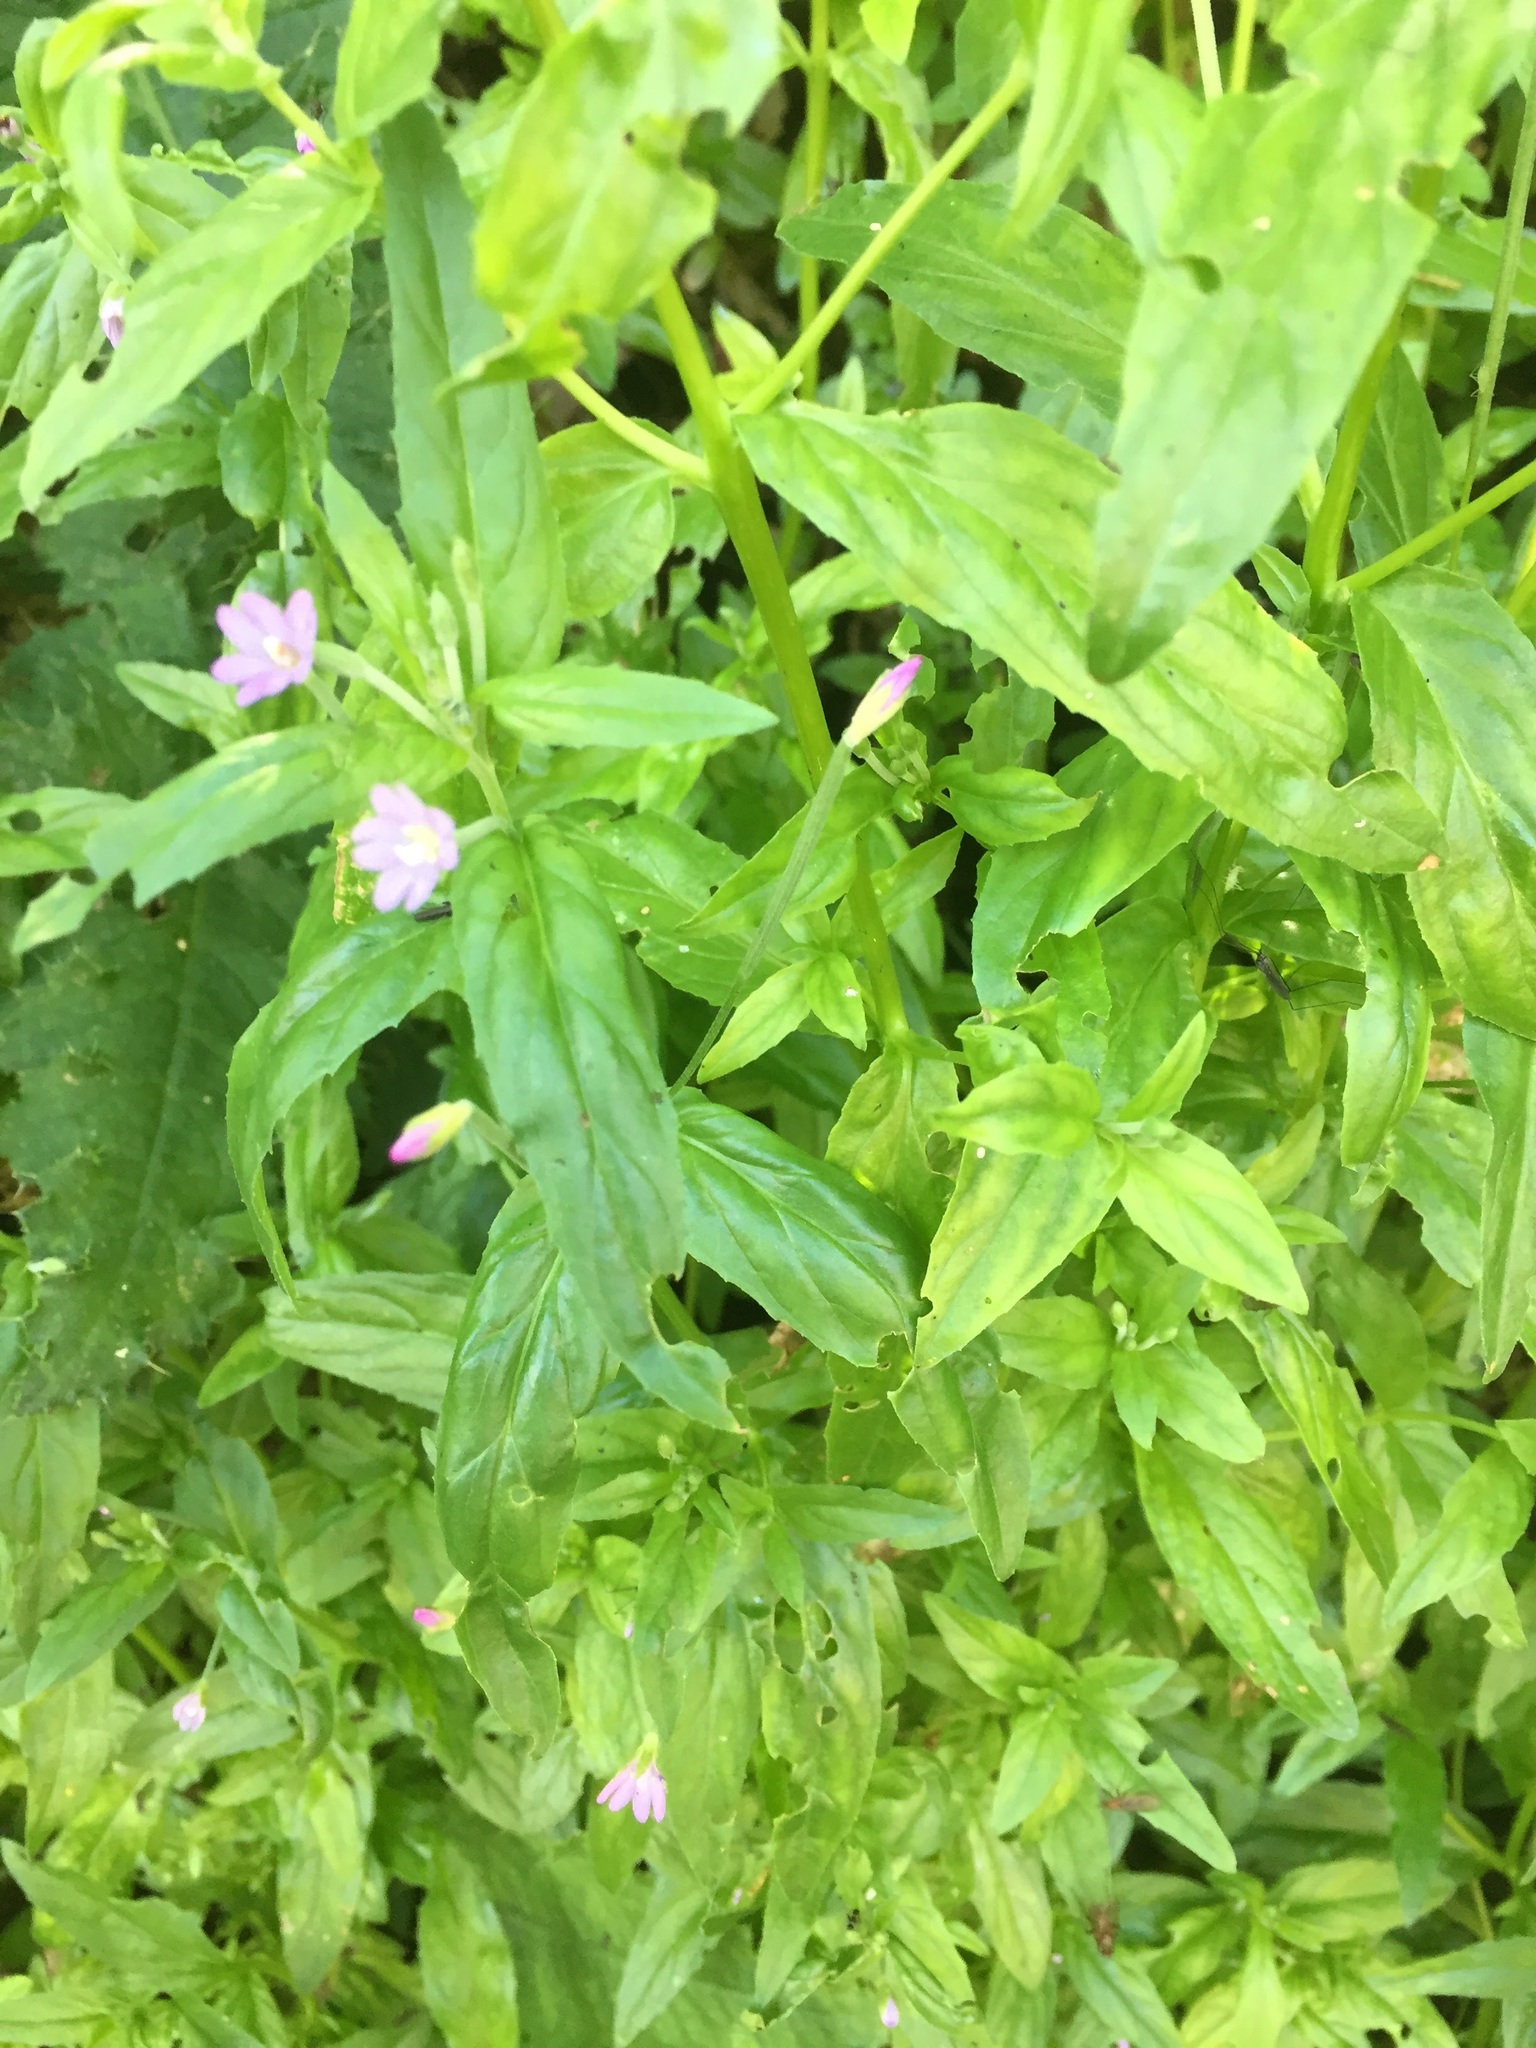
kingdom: Plantae
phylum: Tracheophyta
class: Magnoliopsida
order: Caryophyllales
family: Montiaceae
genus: Montia
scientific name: Montia fontana
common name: Blinks
